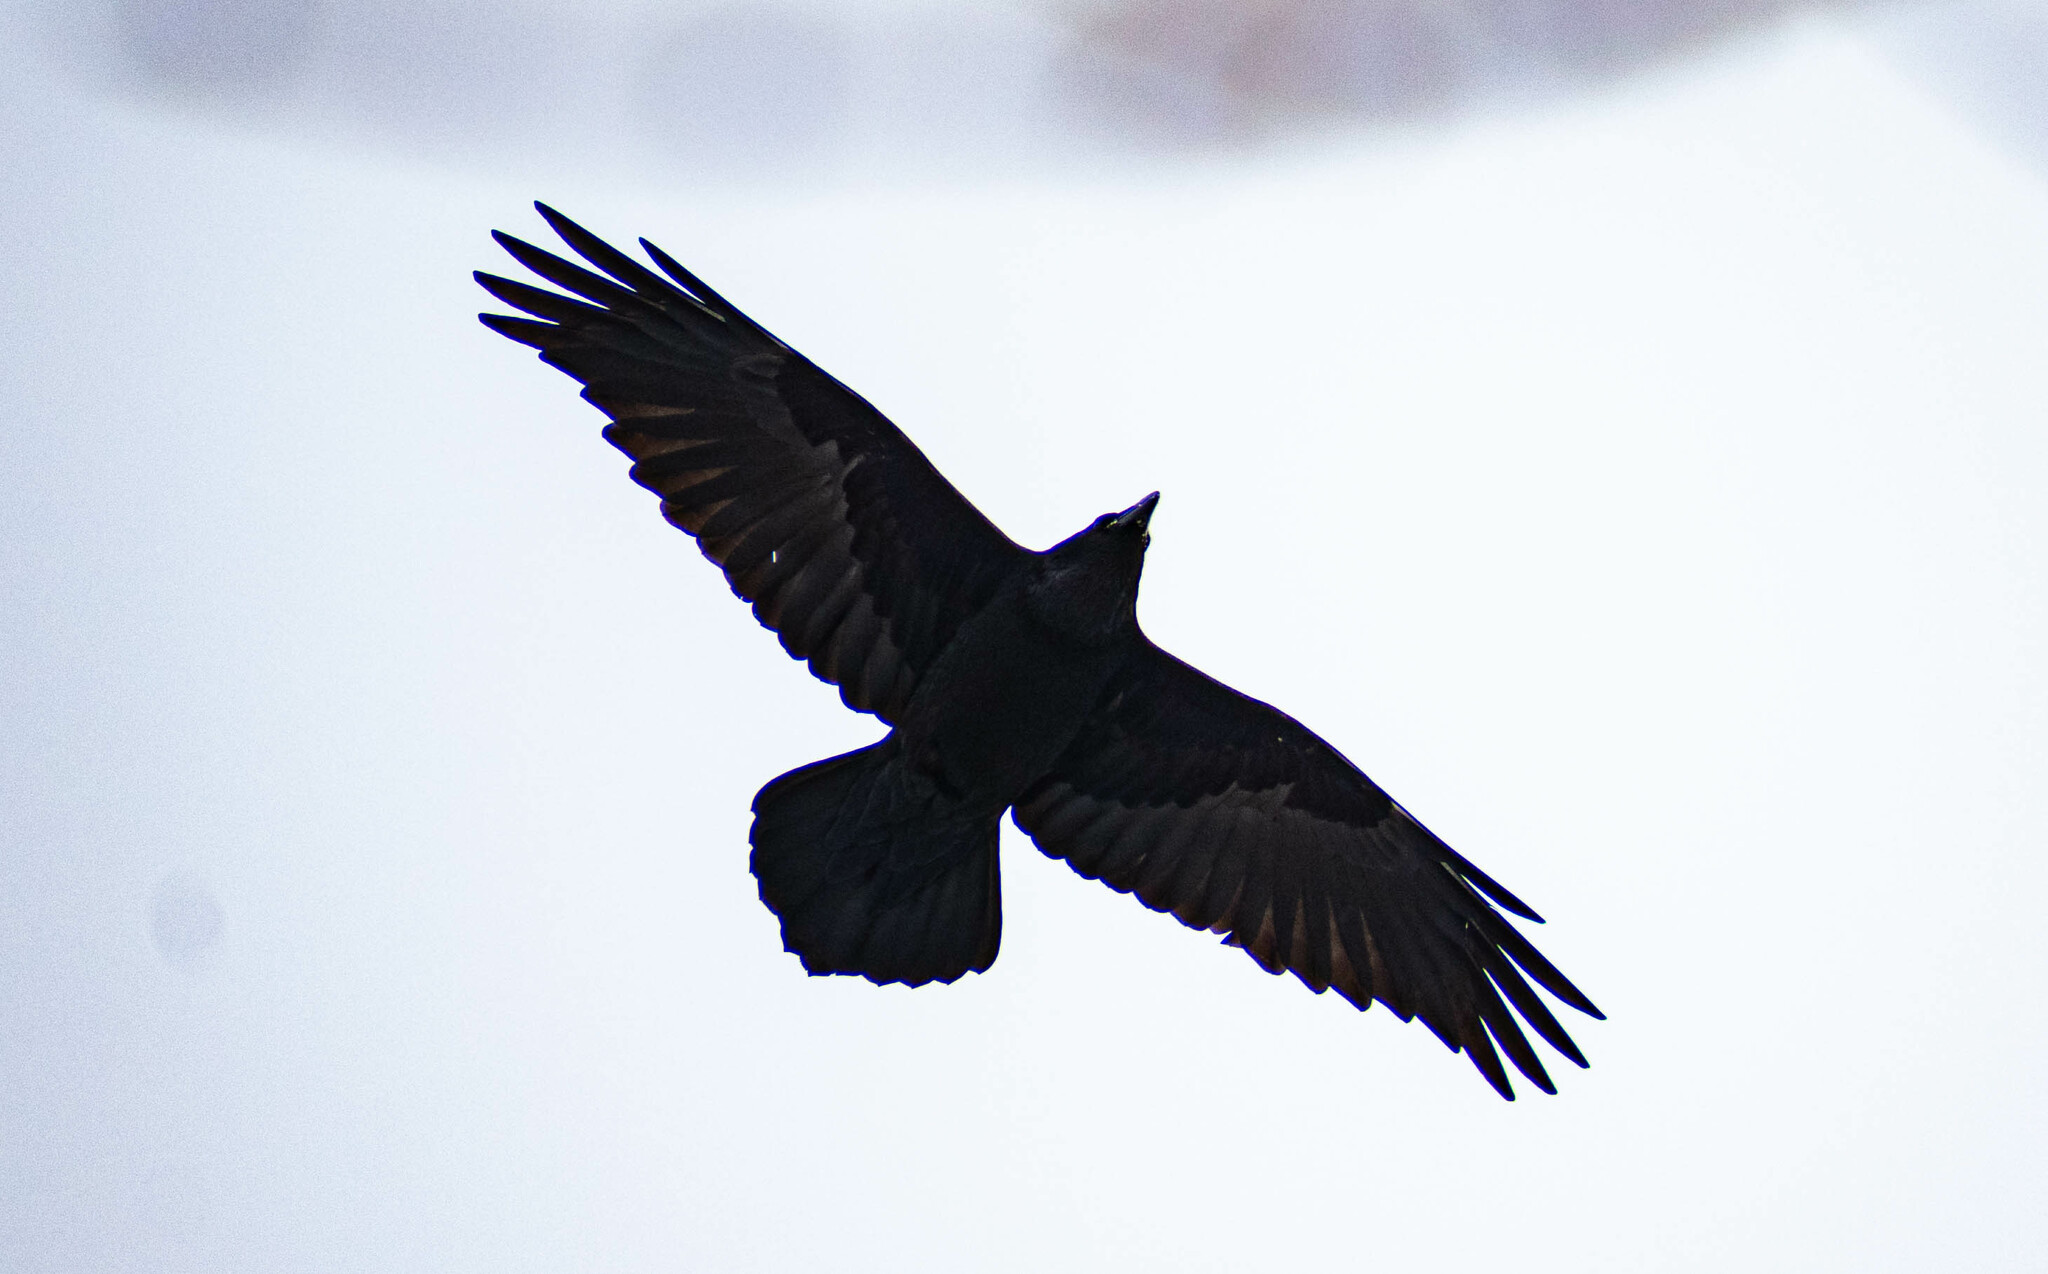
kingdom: Animalia
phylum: Chordata
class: Aves
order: Passeriformes
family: Corvidae
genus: Corvus
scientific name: Corvus corax
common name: Common raven
